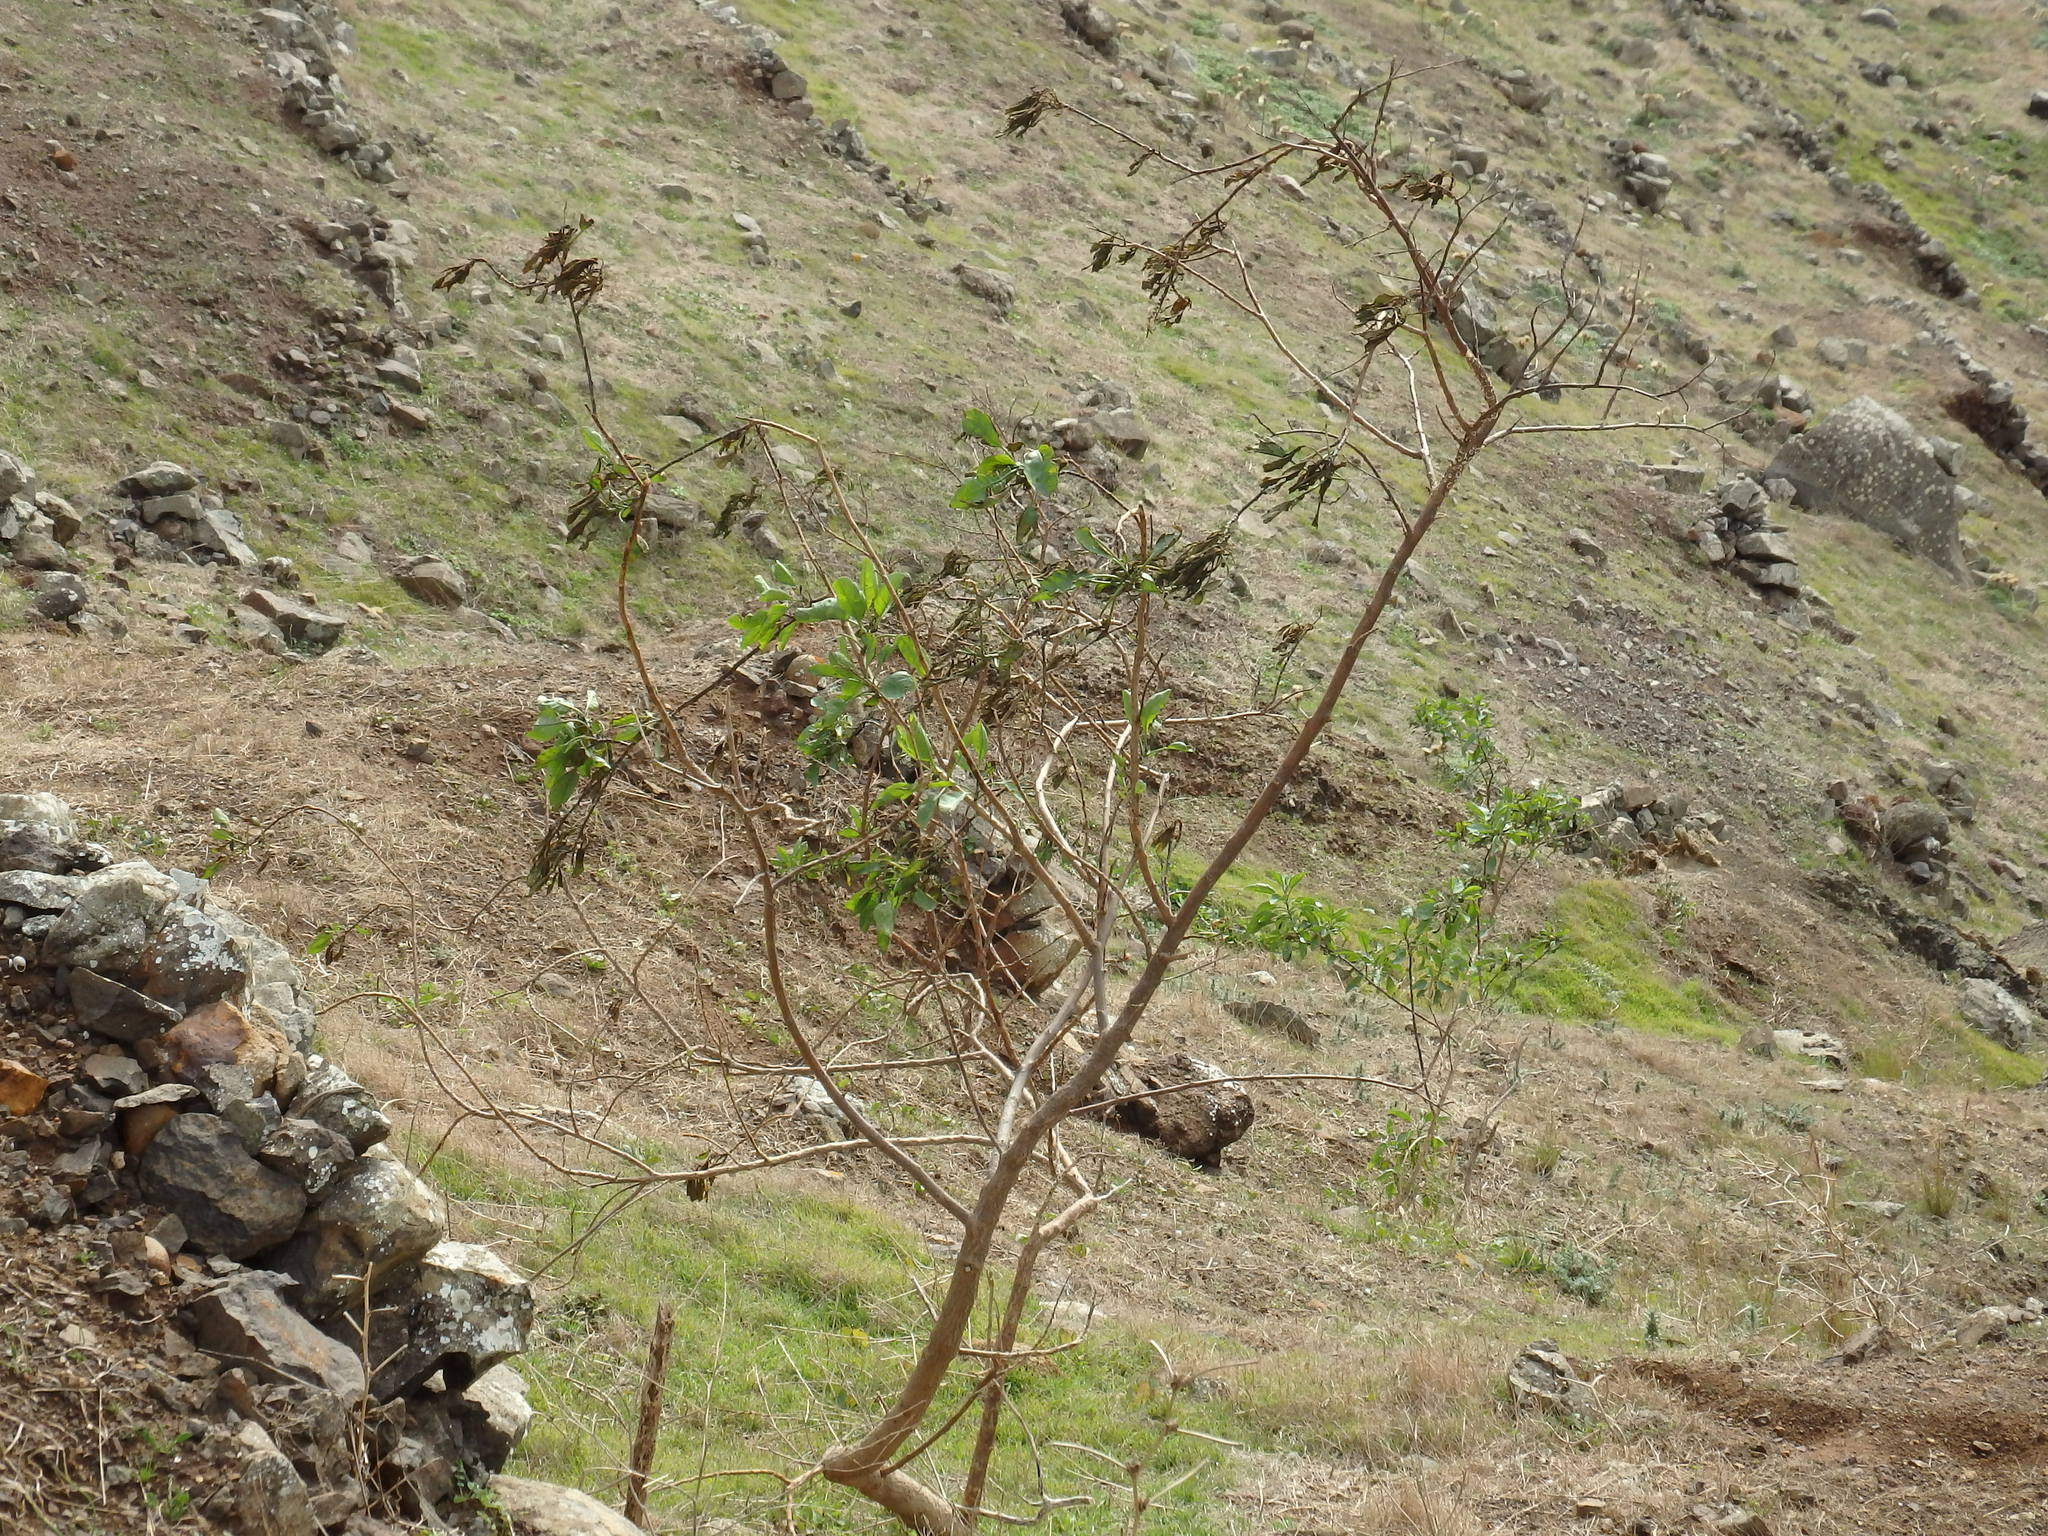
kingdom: Plantae
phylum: Tracheophyta
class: Magnoliopsida
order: Solanales
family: Solanaceae
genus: Nicotiana
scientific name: Nicotiana glauca
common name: Tree tobacco
